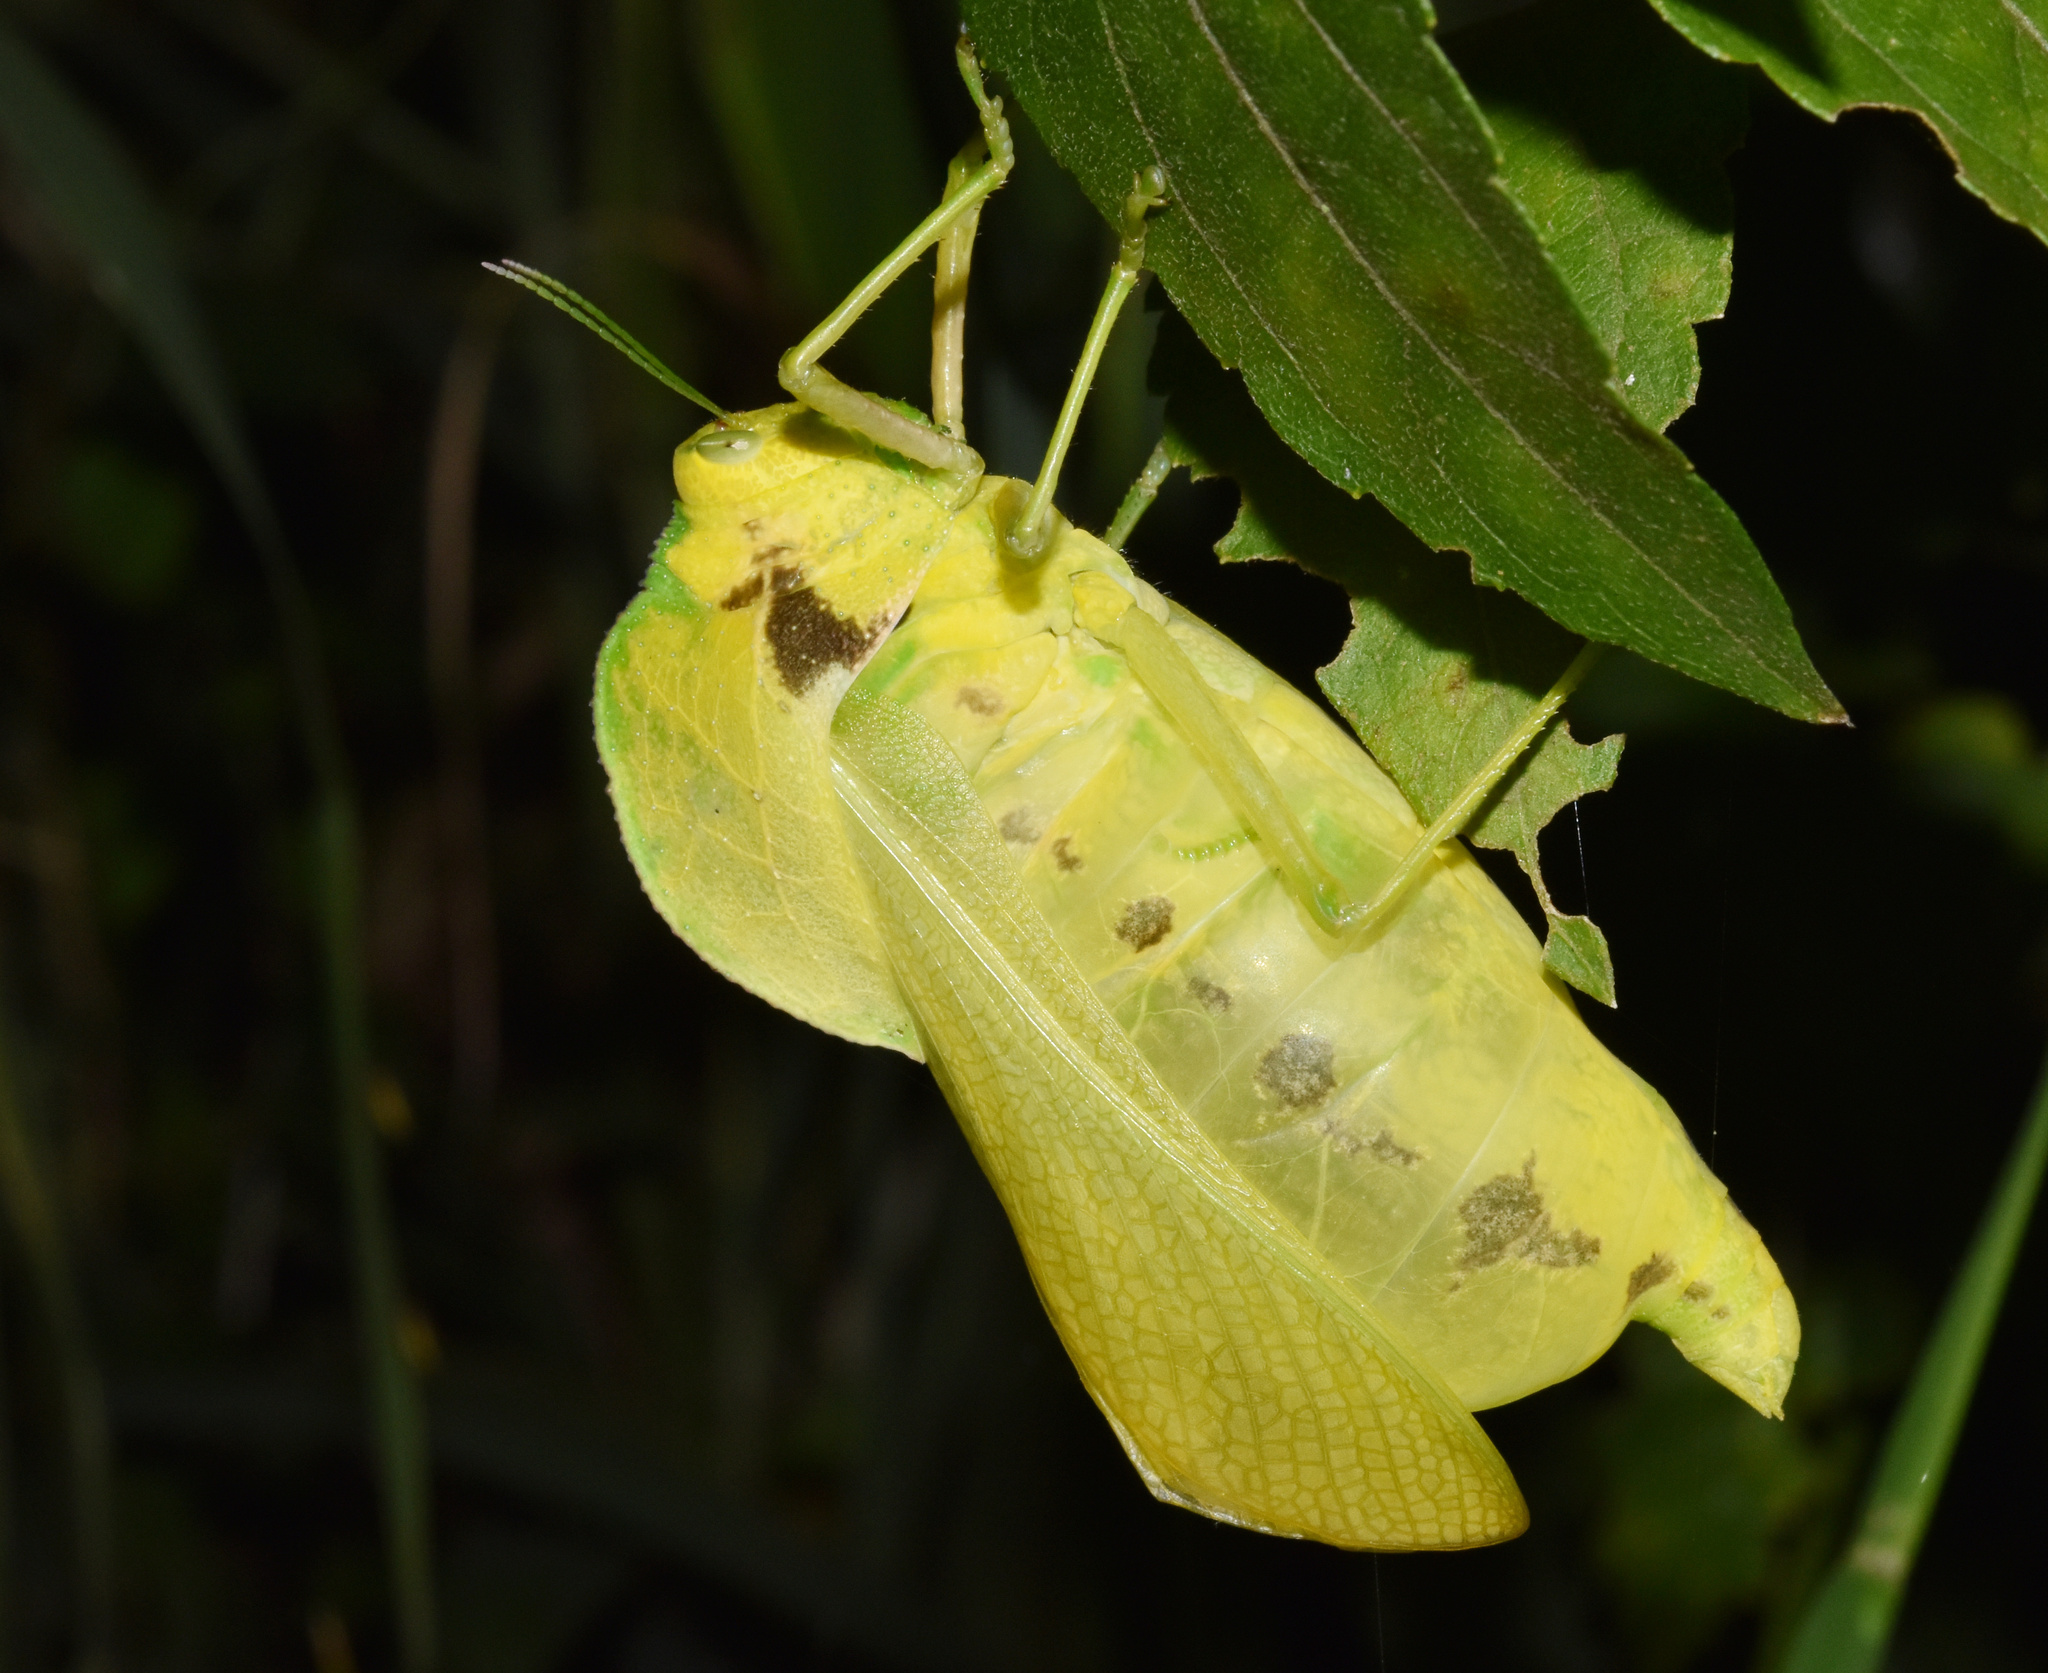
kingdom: Animalia
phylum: Arthropoda
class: Insecta
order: Orthoptera
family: Pneumoridae
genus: Bullacris
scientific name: Bullacris membracioides
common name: Bishop
